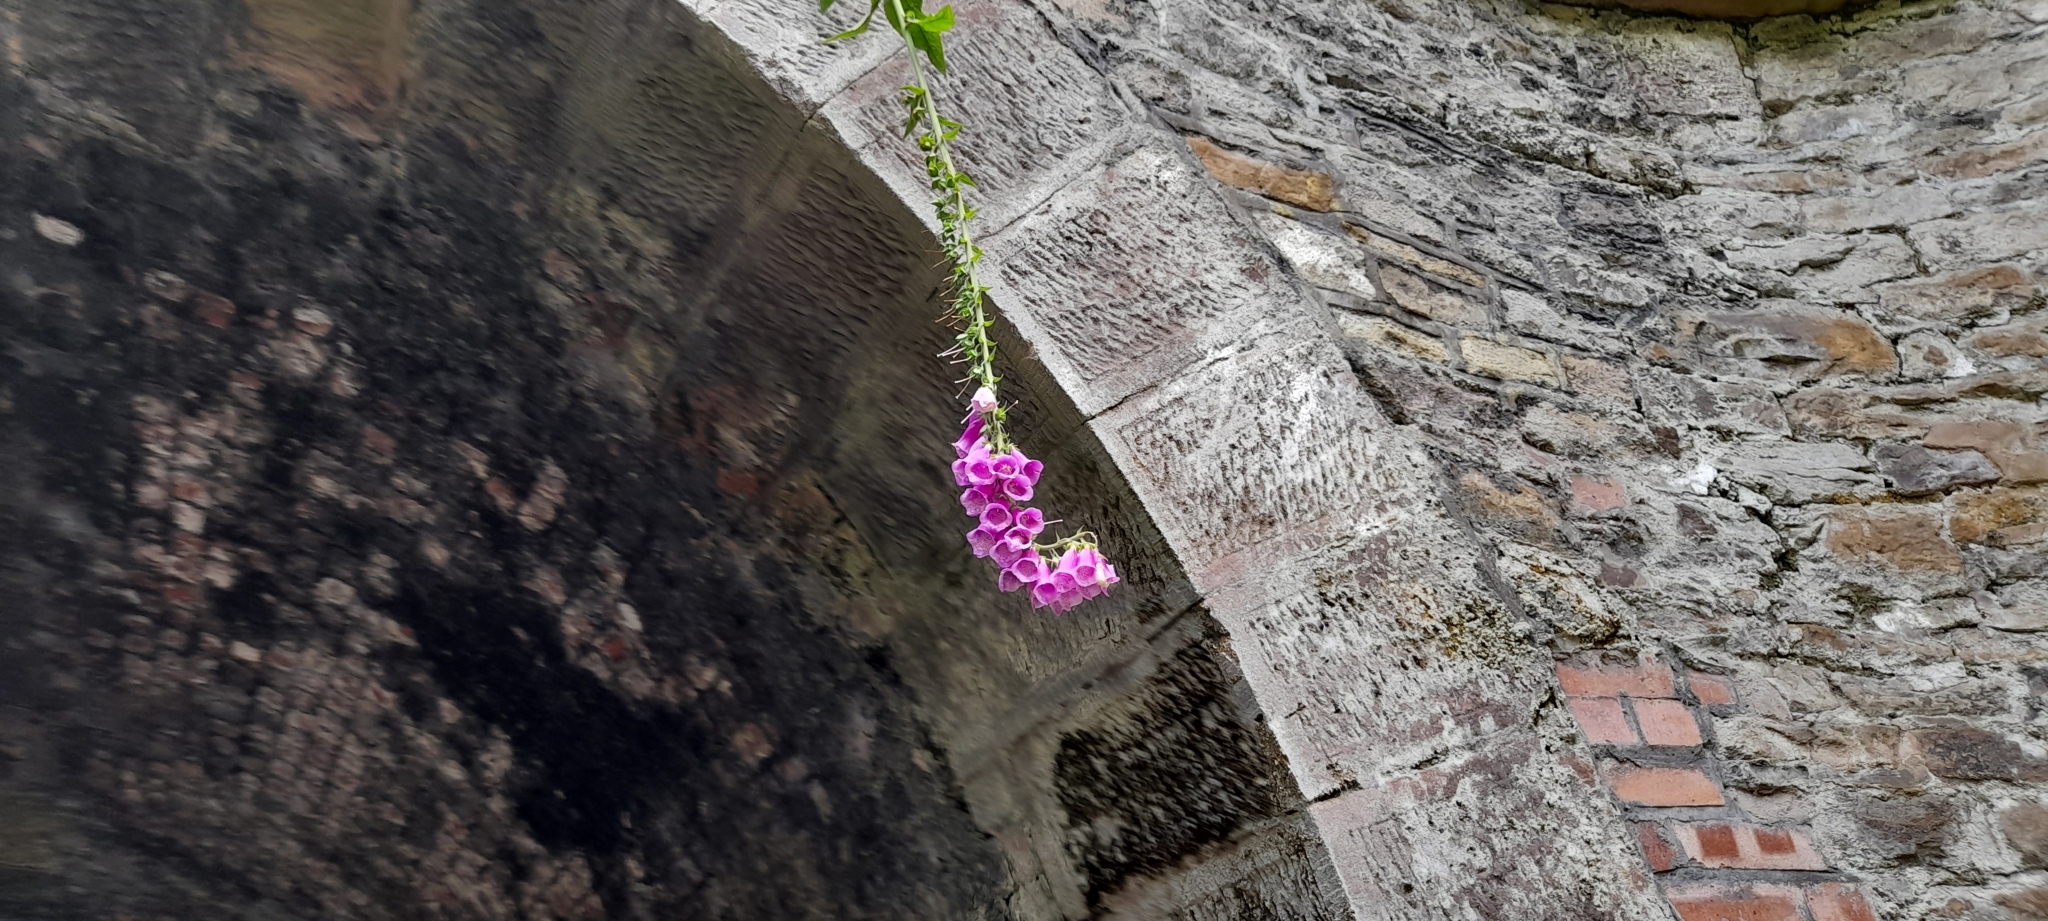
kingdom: Plantae
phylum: Tracheophyta
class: Magnoliopsida
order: Lamiales
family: Plantaginaceae
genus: Digitalis
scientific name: Digitalis purpurea
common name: Foxglove
